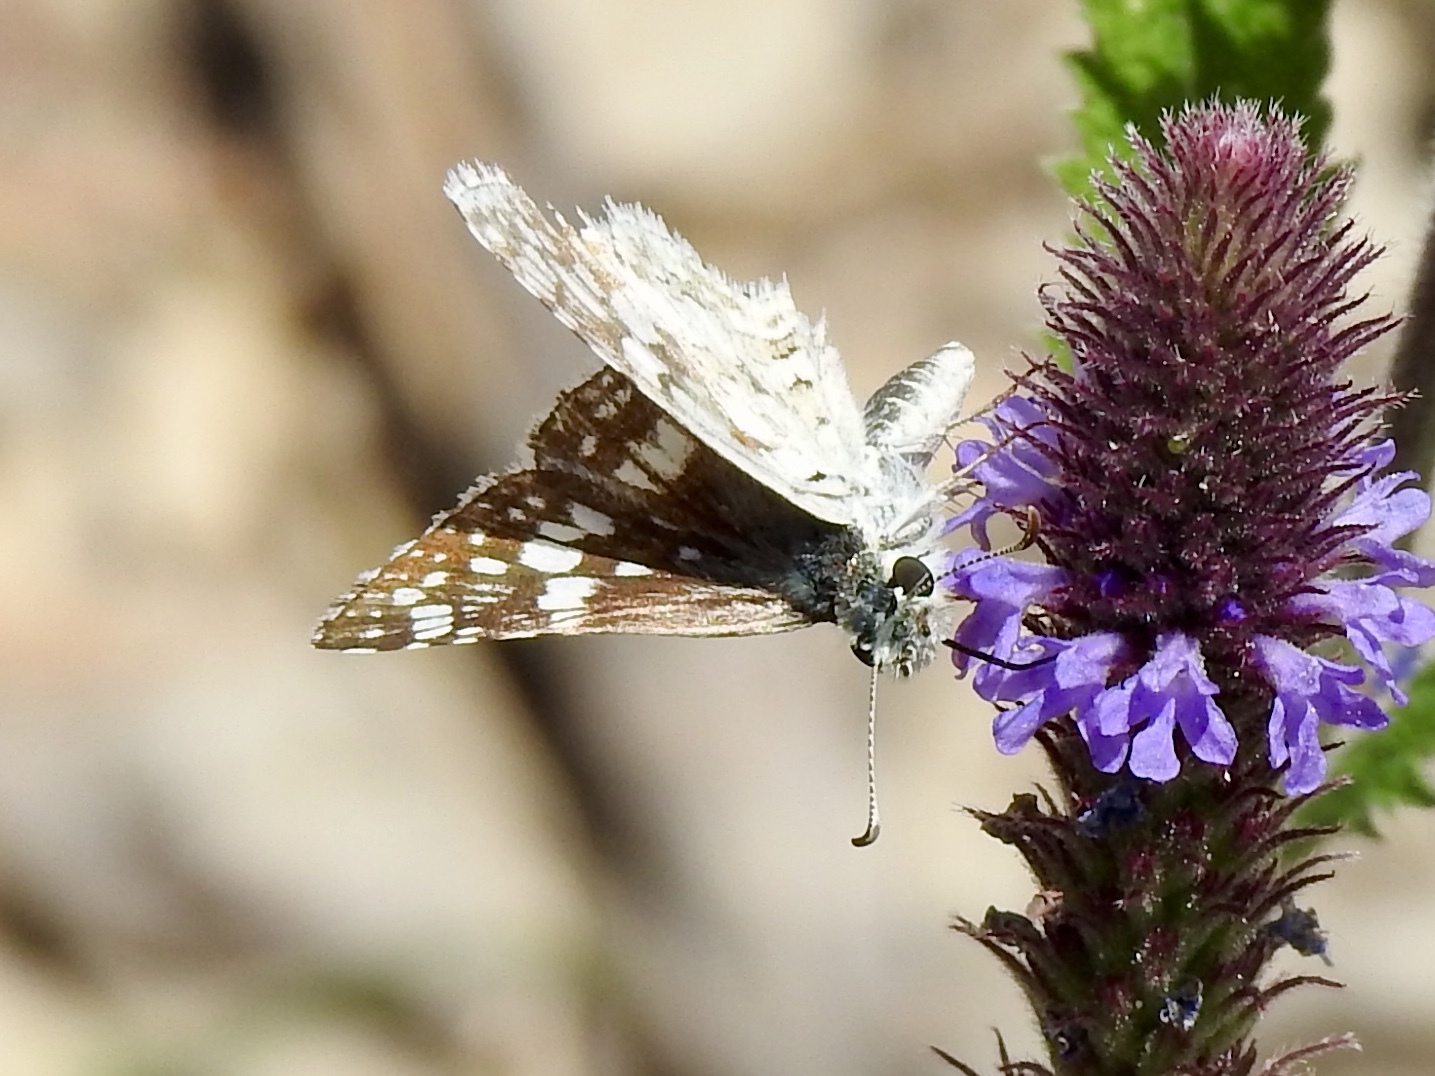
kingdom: Animalia
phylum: Arthropoda
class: Insecta
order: Lepidoptera
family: Hesperiidae
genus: Burnsius
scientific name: Burnsius
